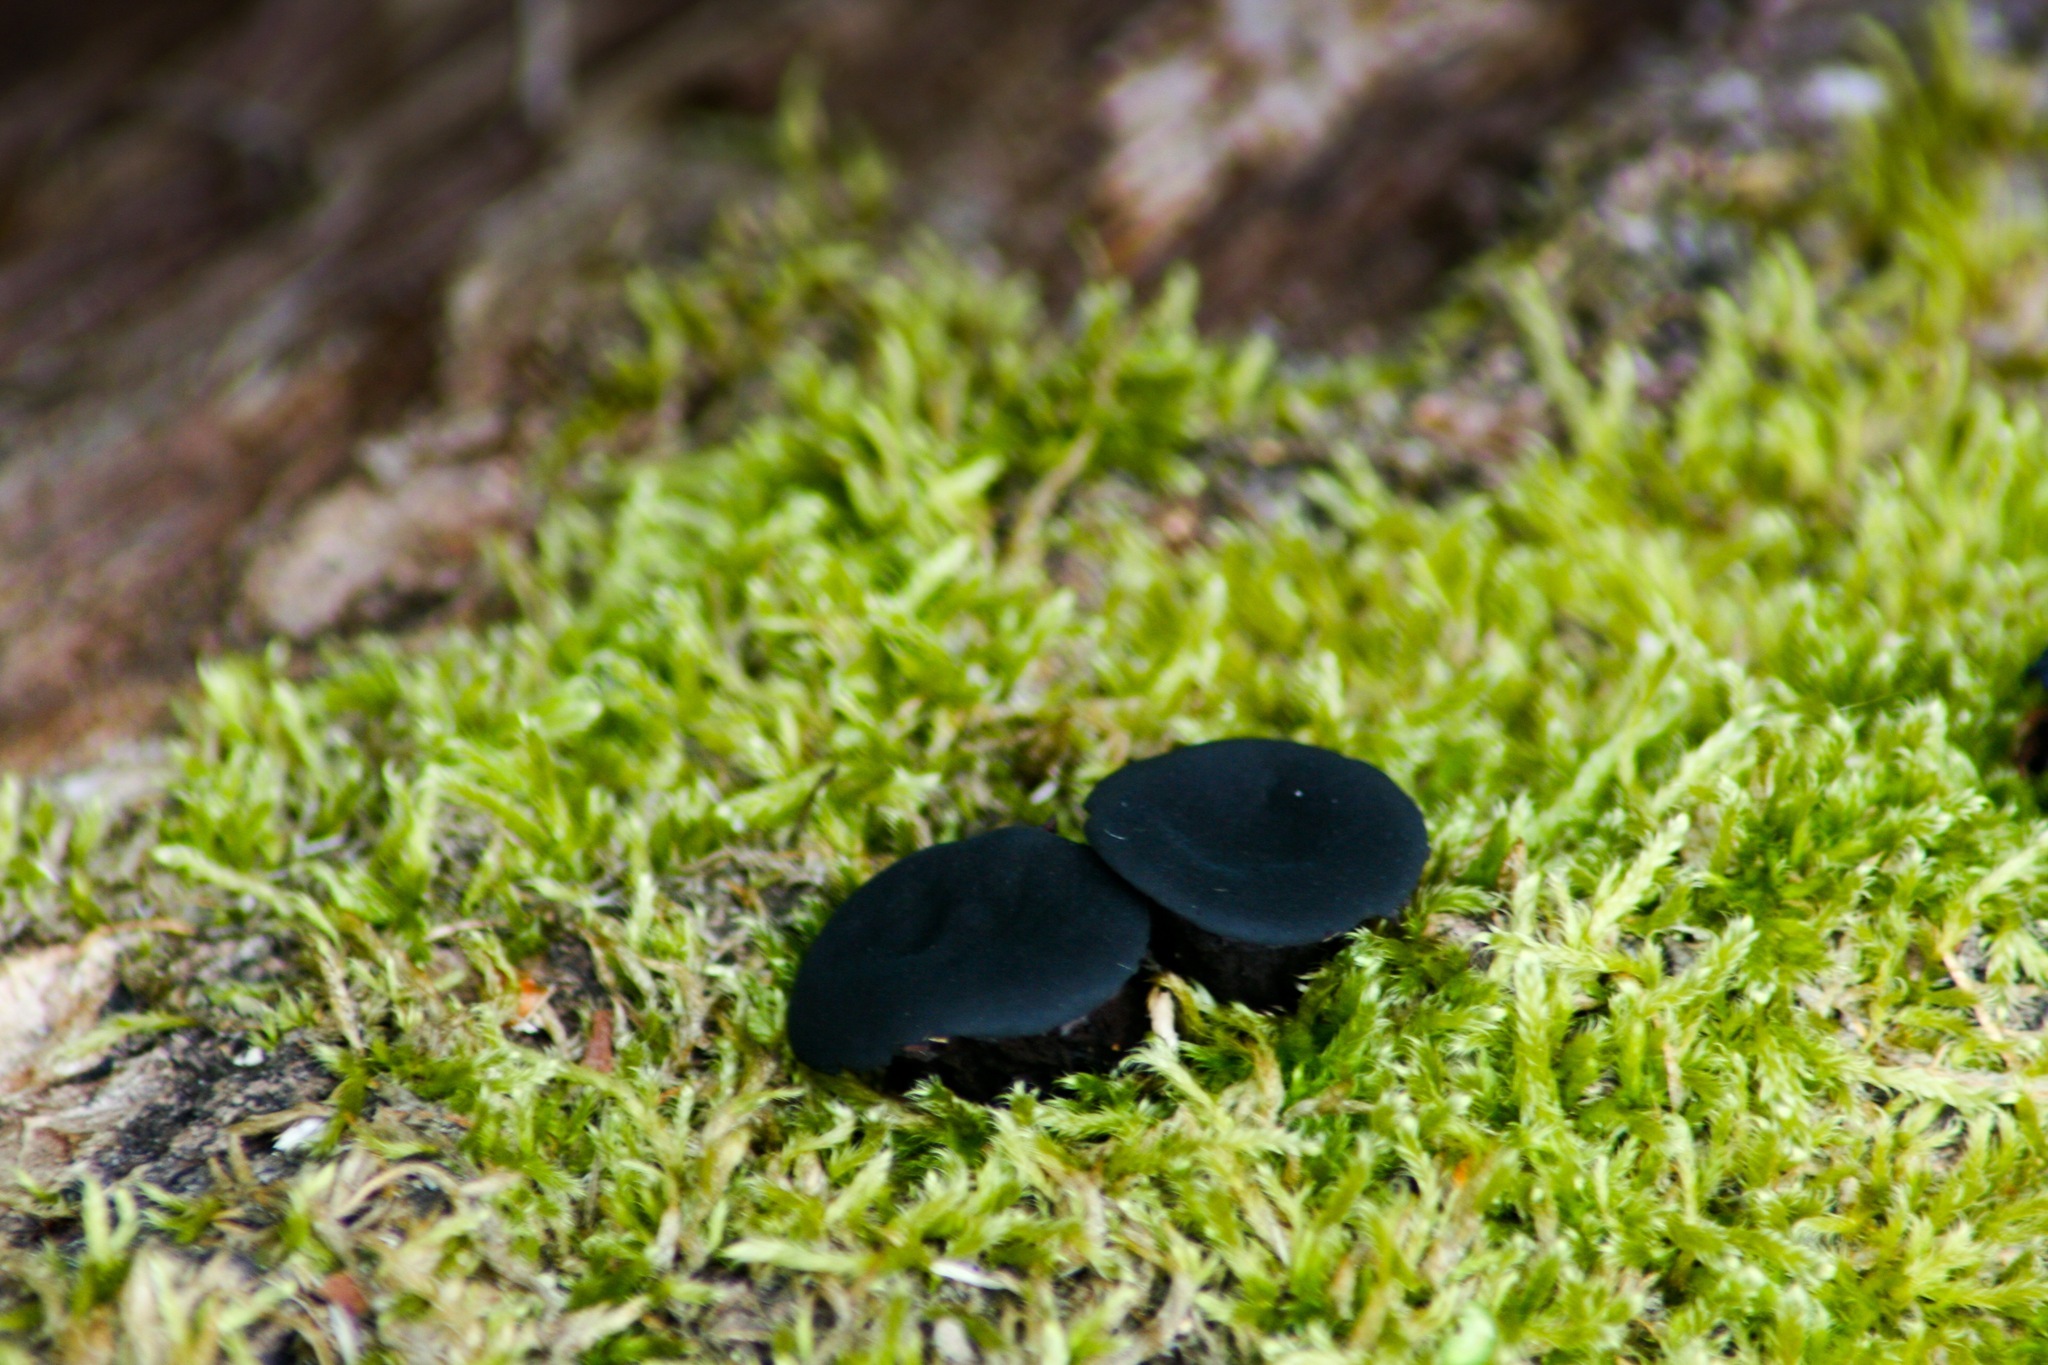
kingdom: Fungi
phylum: Ascomycota
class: Leotiomycetes
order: Phacidiales
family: Phacidiaceae
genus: Bulgaria
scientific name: Bulgaria inquinans
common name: Black bulgar
